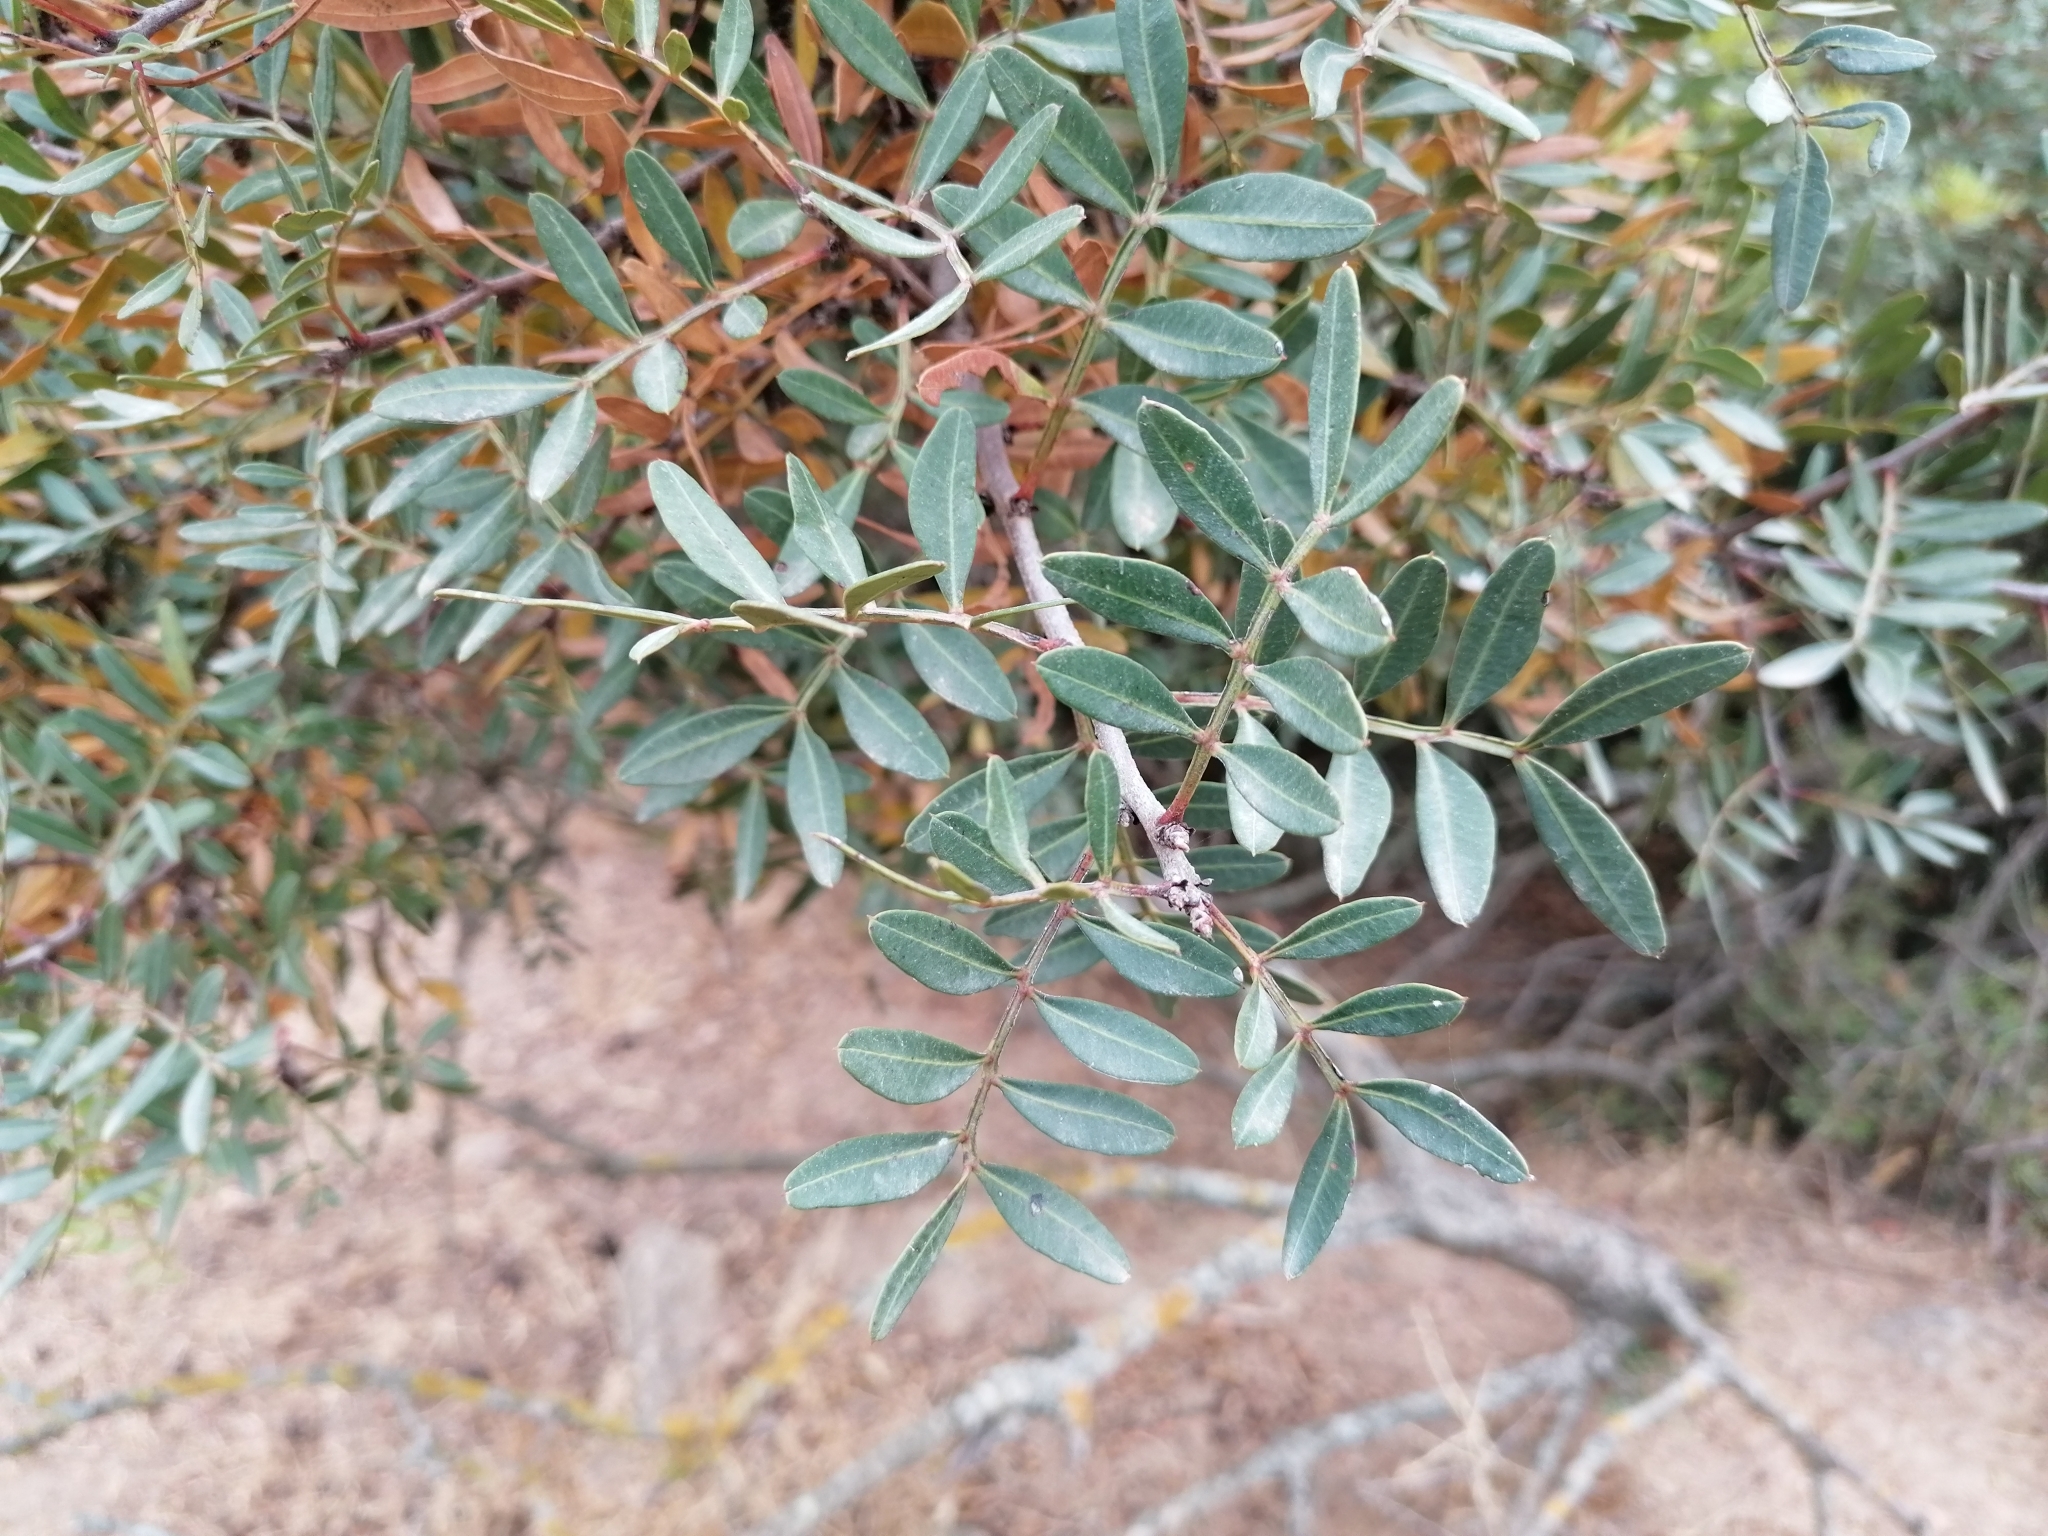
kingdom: Plantae
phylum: Tracheophyta
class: Magnoliopsida
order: Sapindales
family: Anacardiaceae
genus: Pistacia
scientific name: Pistacia lentiscus
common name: Lentisk
